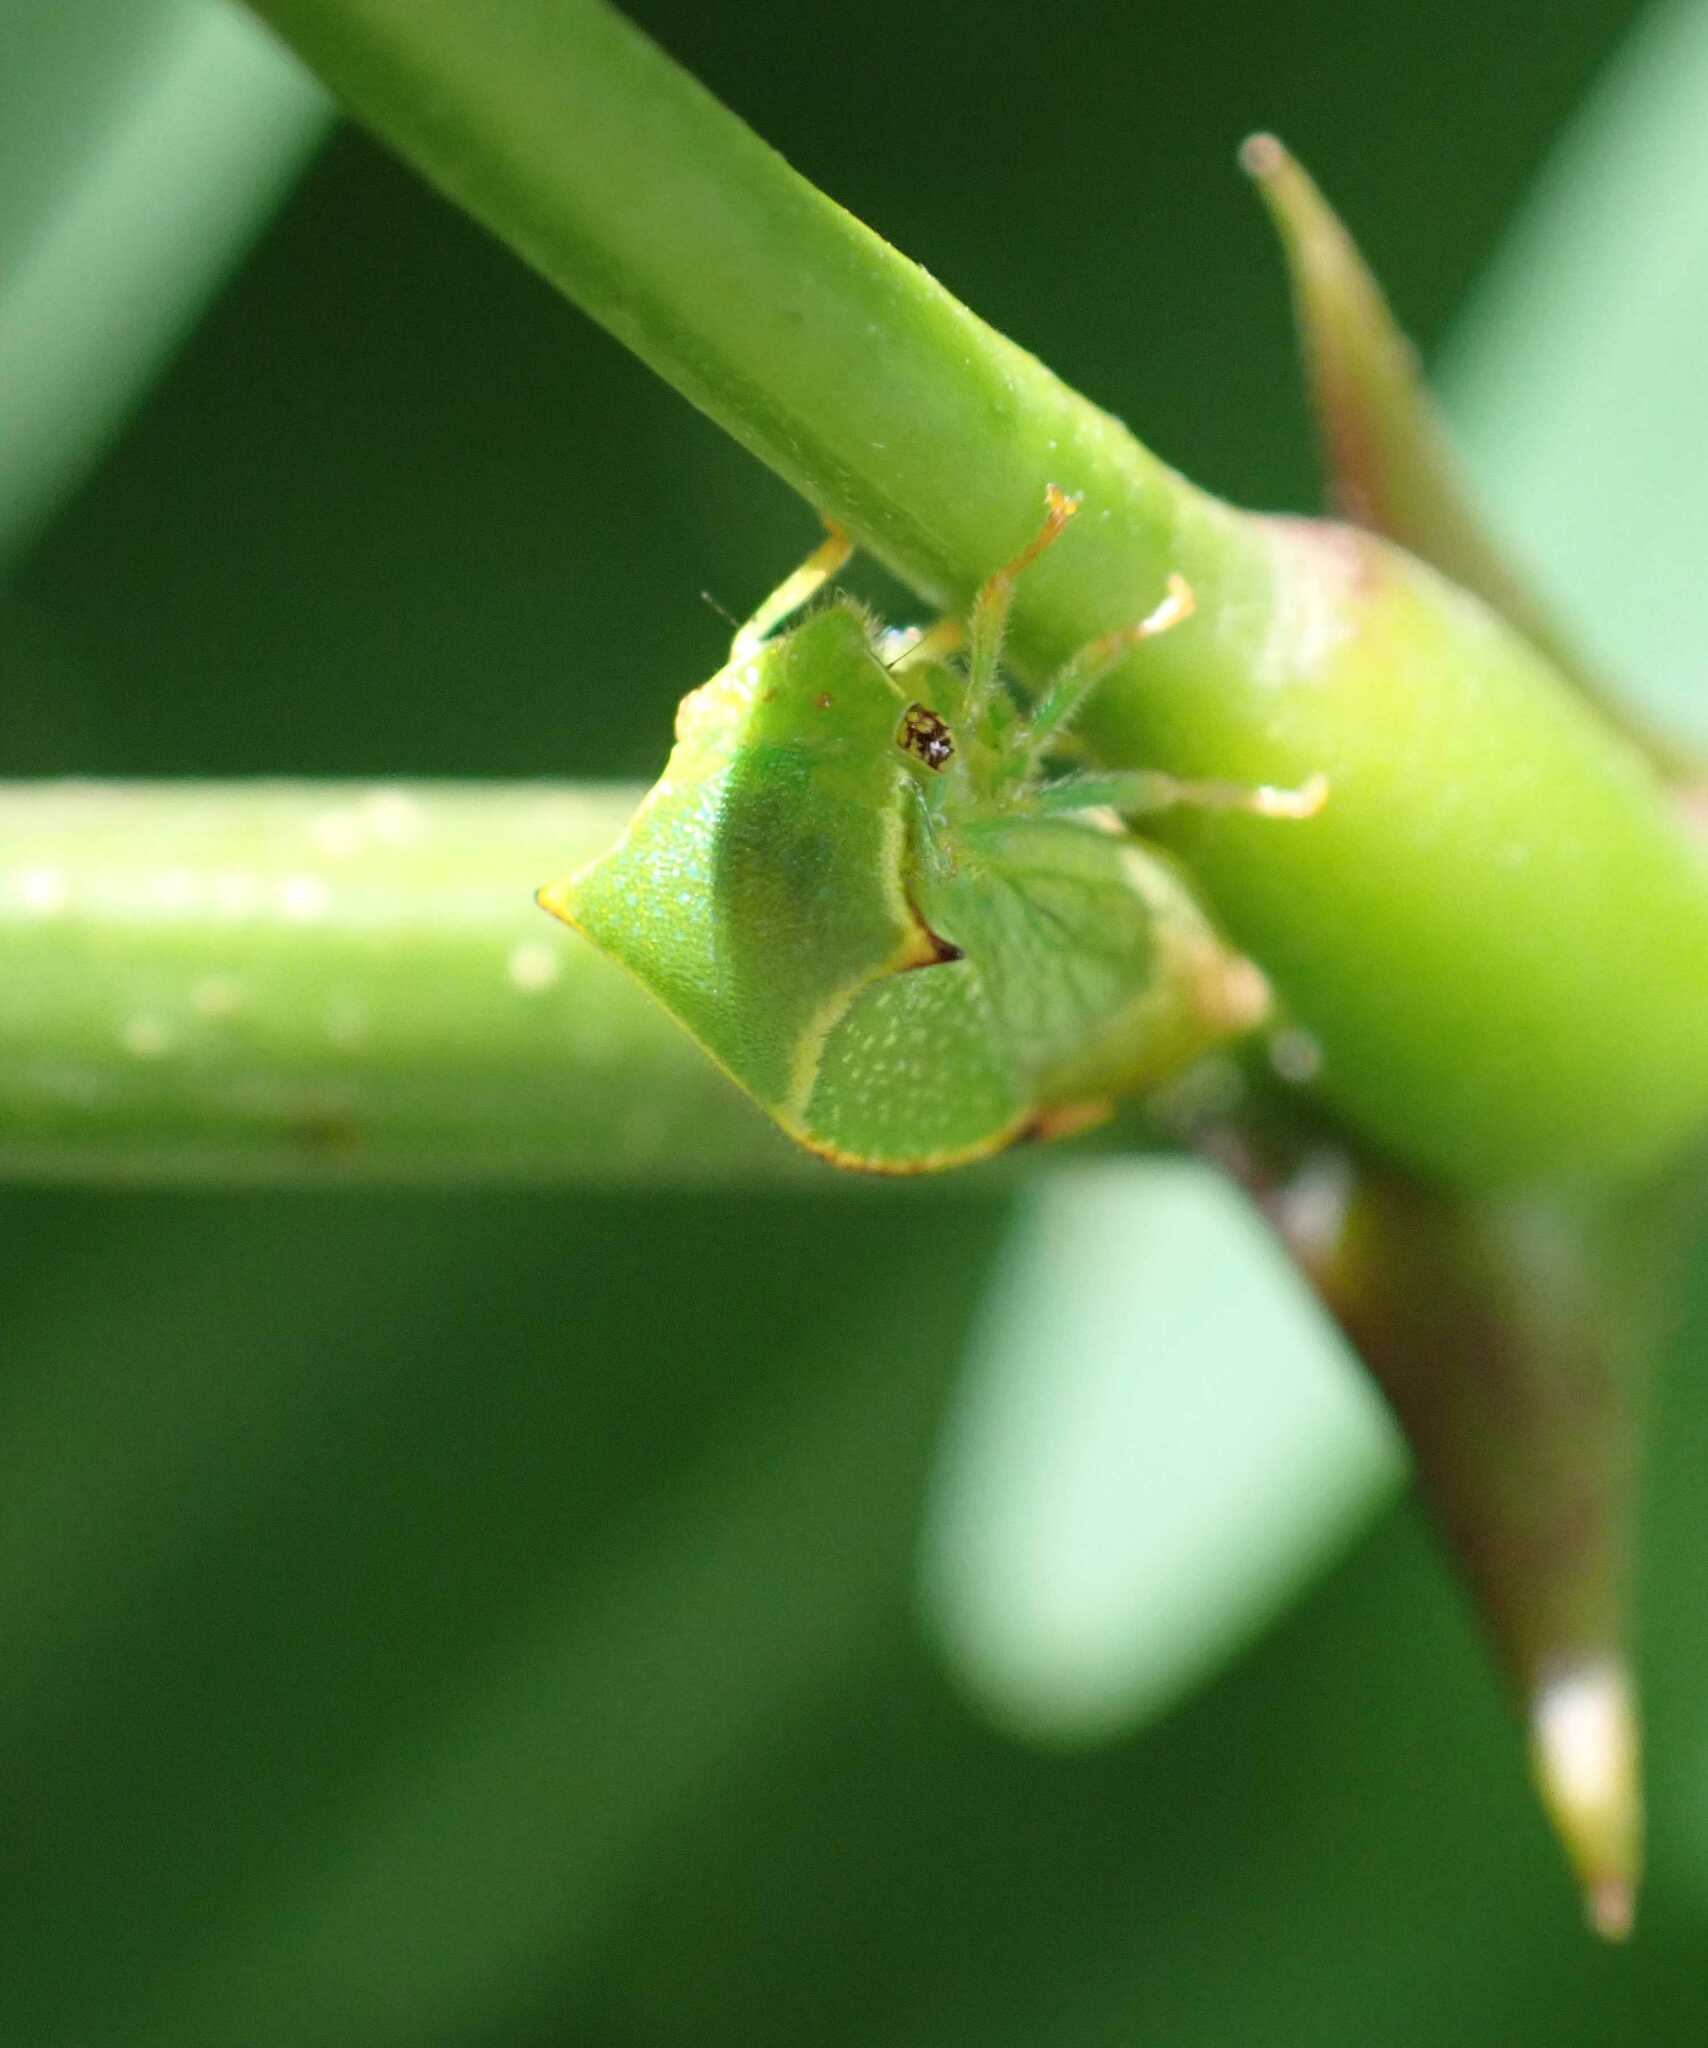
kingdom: Animalia
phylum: Arthropoda
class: Insecta
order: Hemiptera
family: Membracidae
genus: Stictocephala
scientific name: Stictocephala bisonia
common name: American buffalo treehopper
